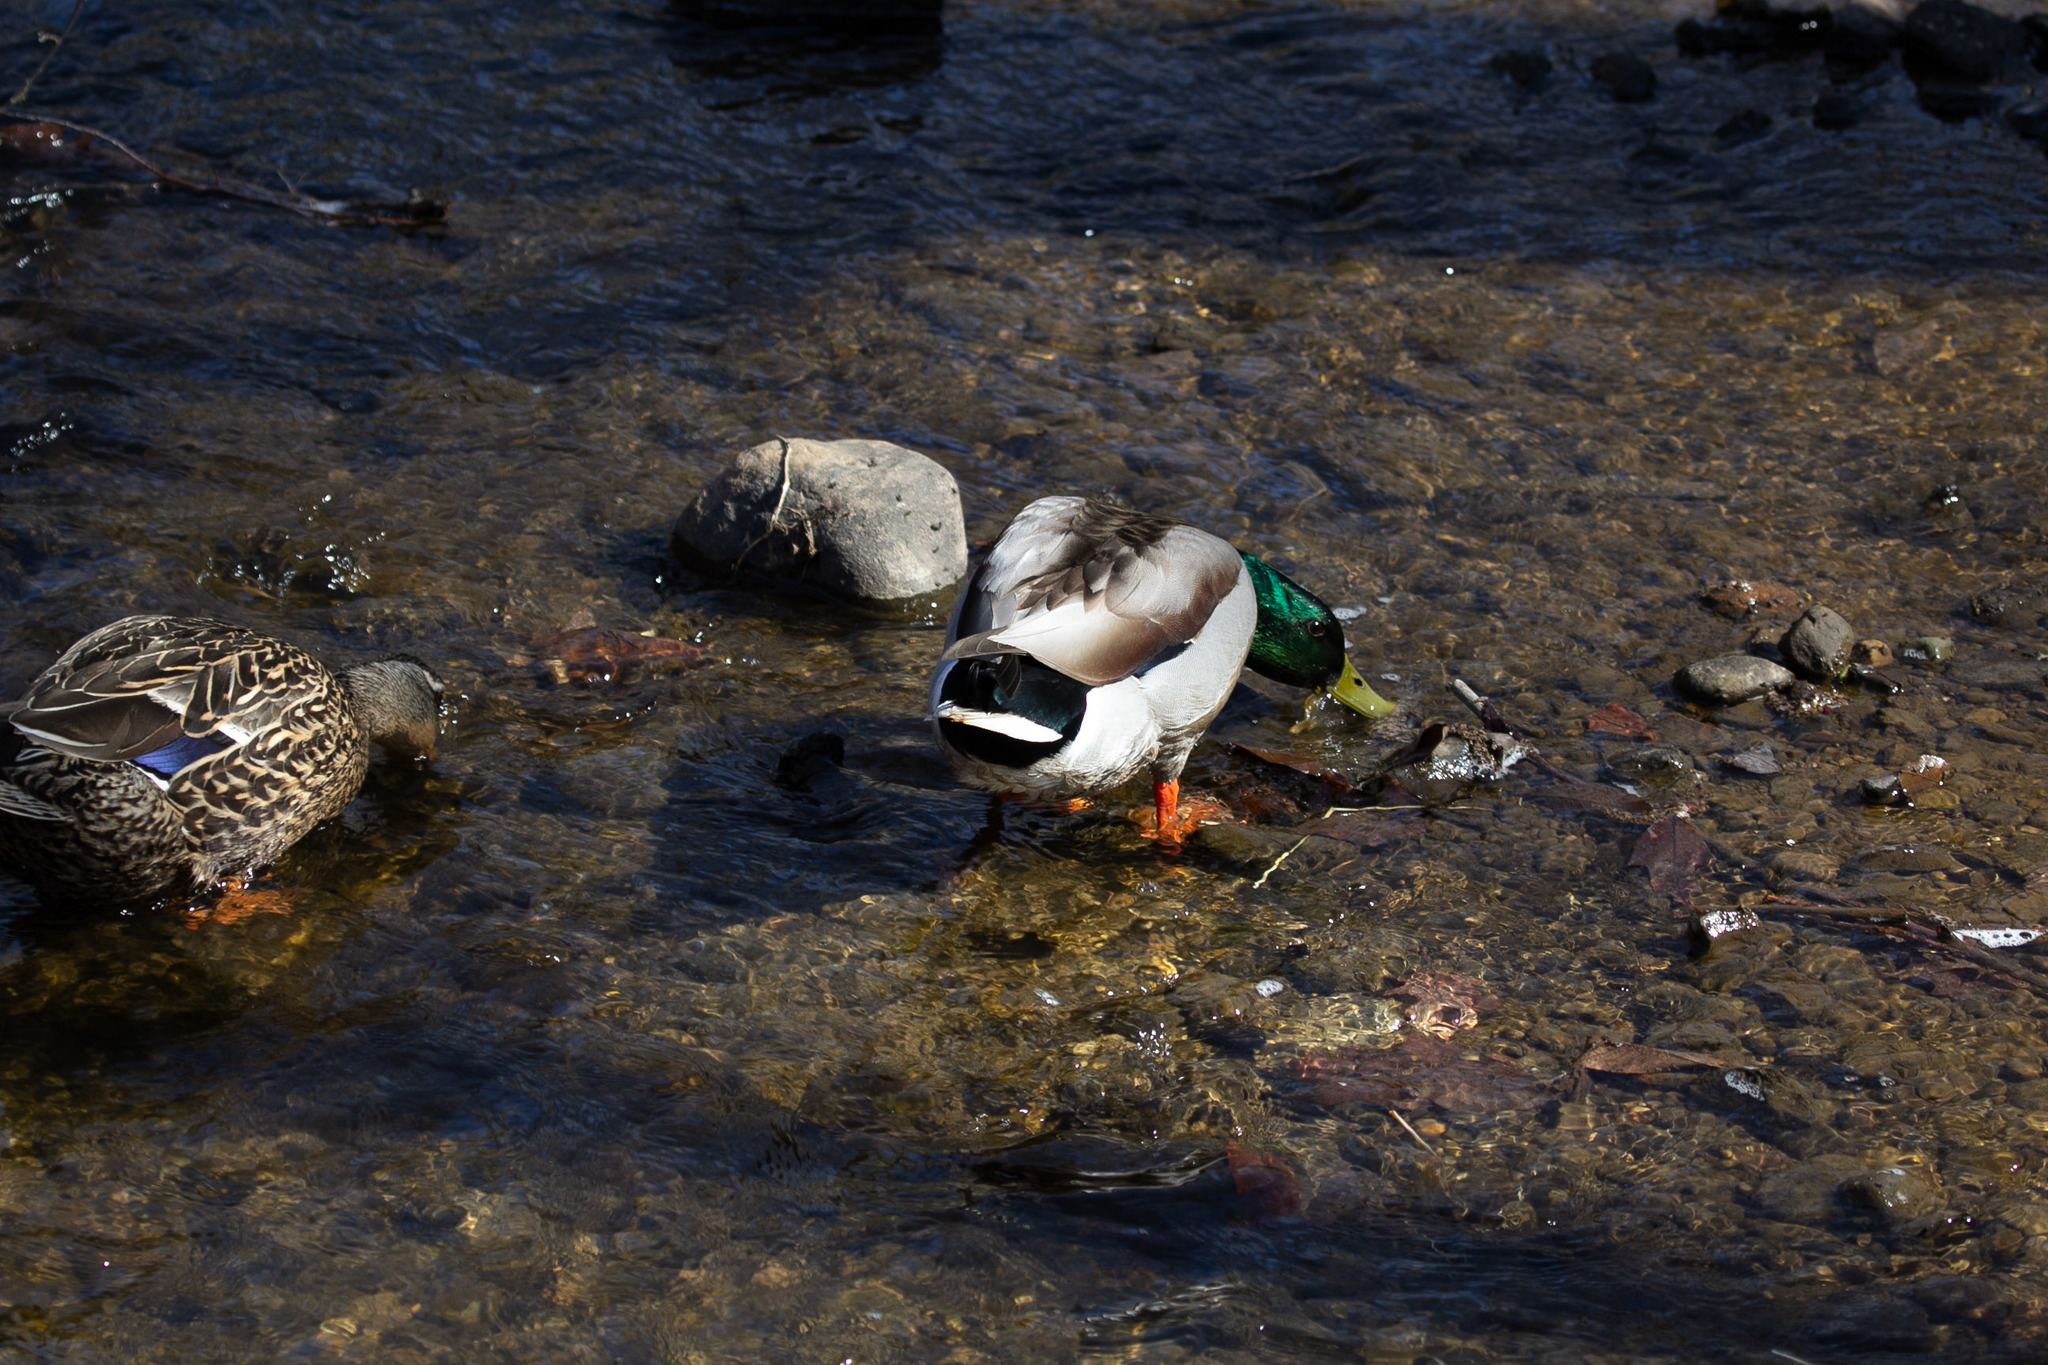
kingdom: Animalia
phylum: Chordata
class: Aves
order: Anseriformes
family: Anatidae
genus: Anas
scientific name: Anas platyrhynchos
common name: Mallard
